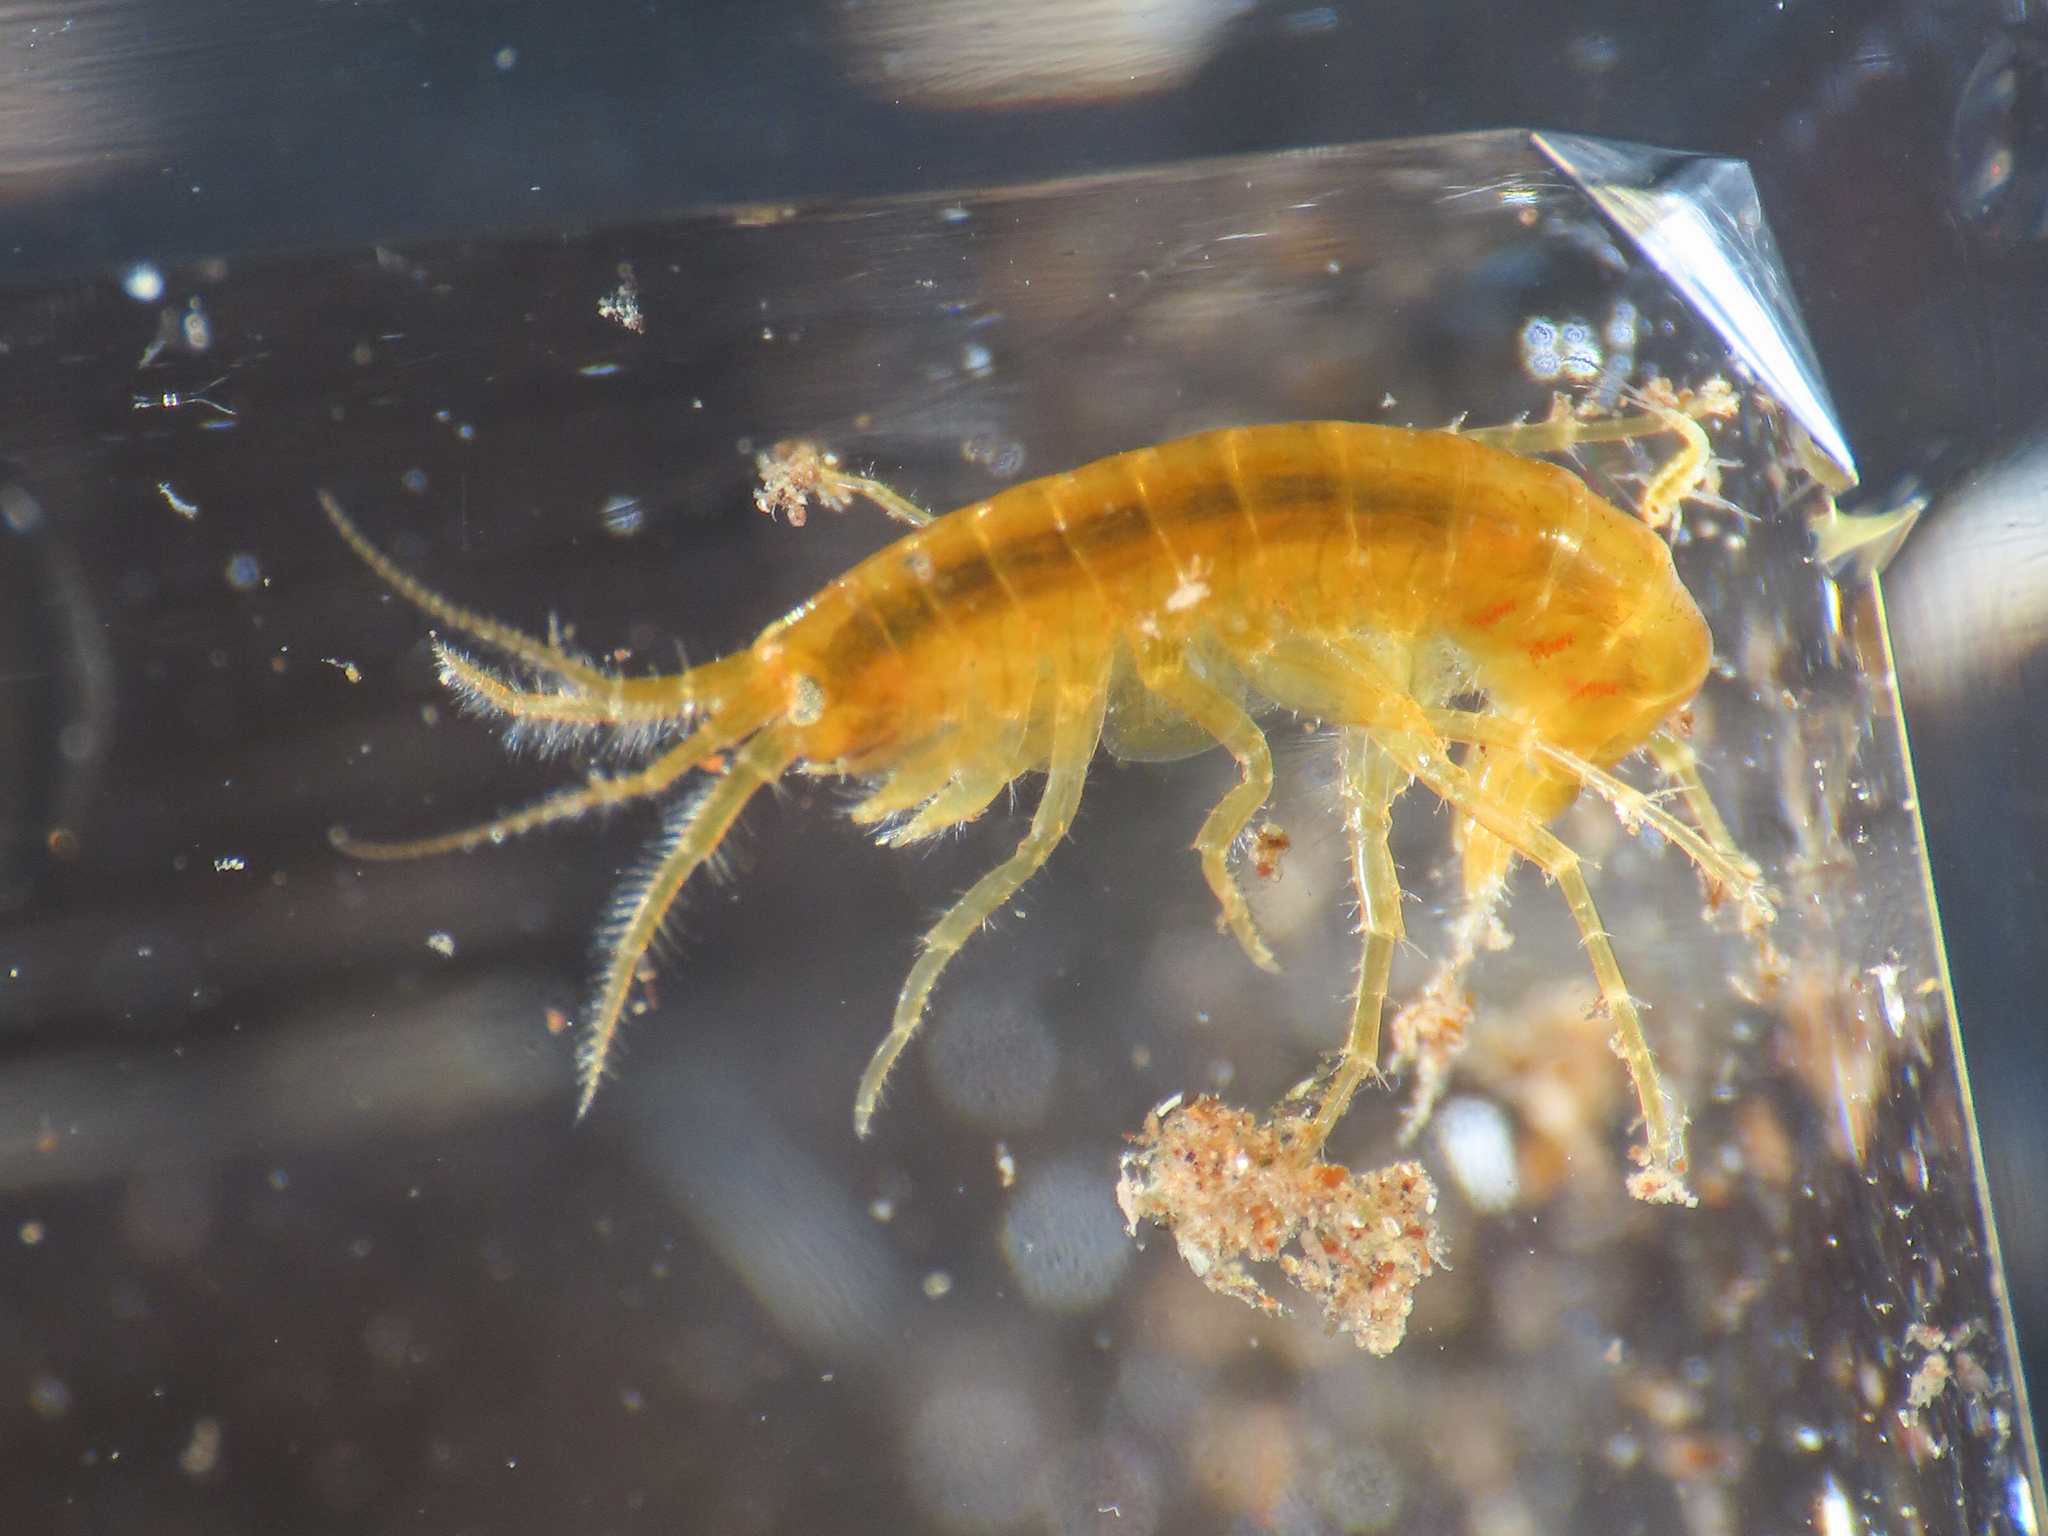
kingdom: Animalia
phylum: Arthropoda
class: Malacostraca
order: Amphipoda
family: Gammaridae
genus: Gammarus
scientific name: Gammarus elvirae
